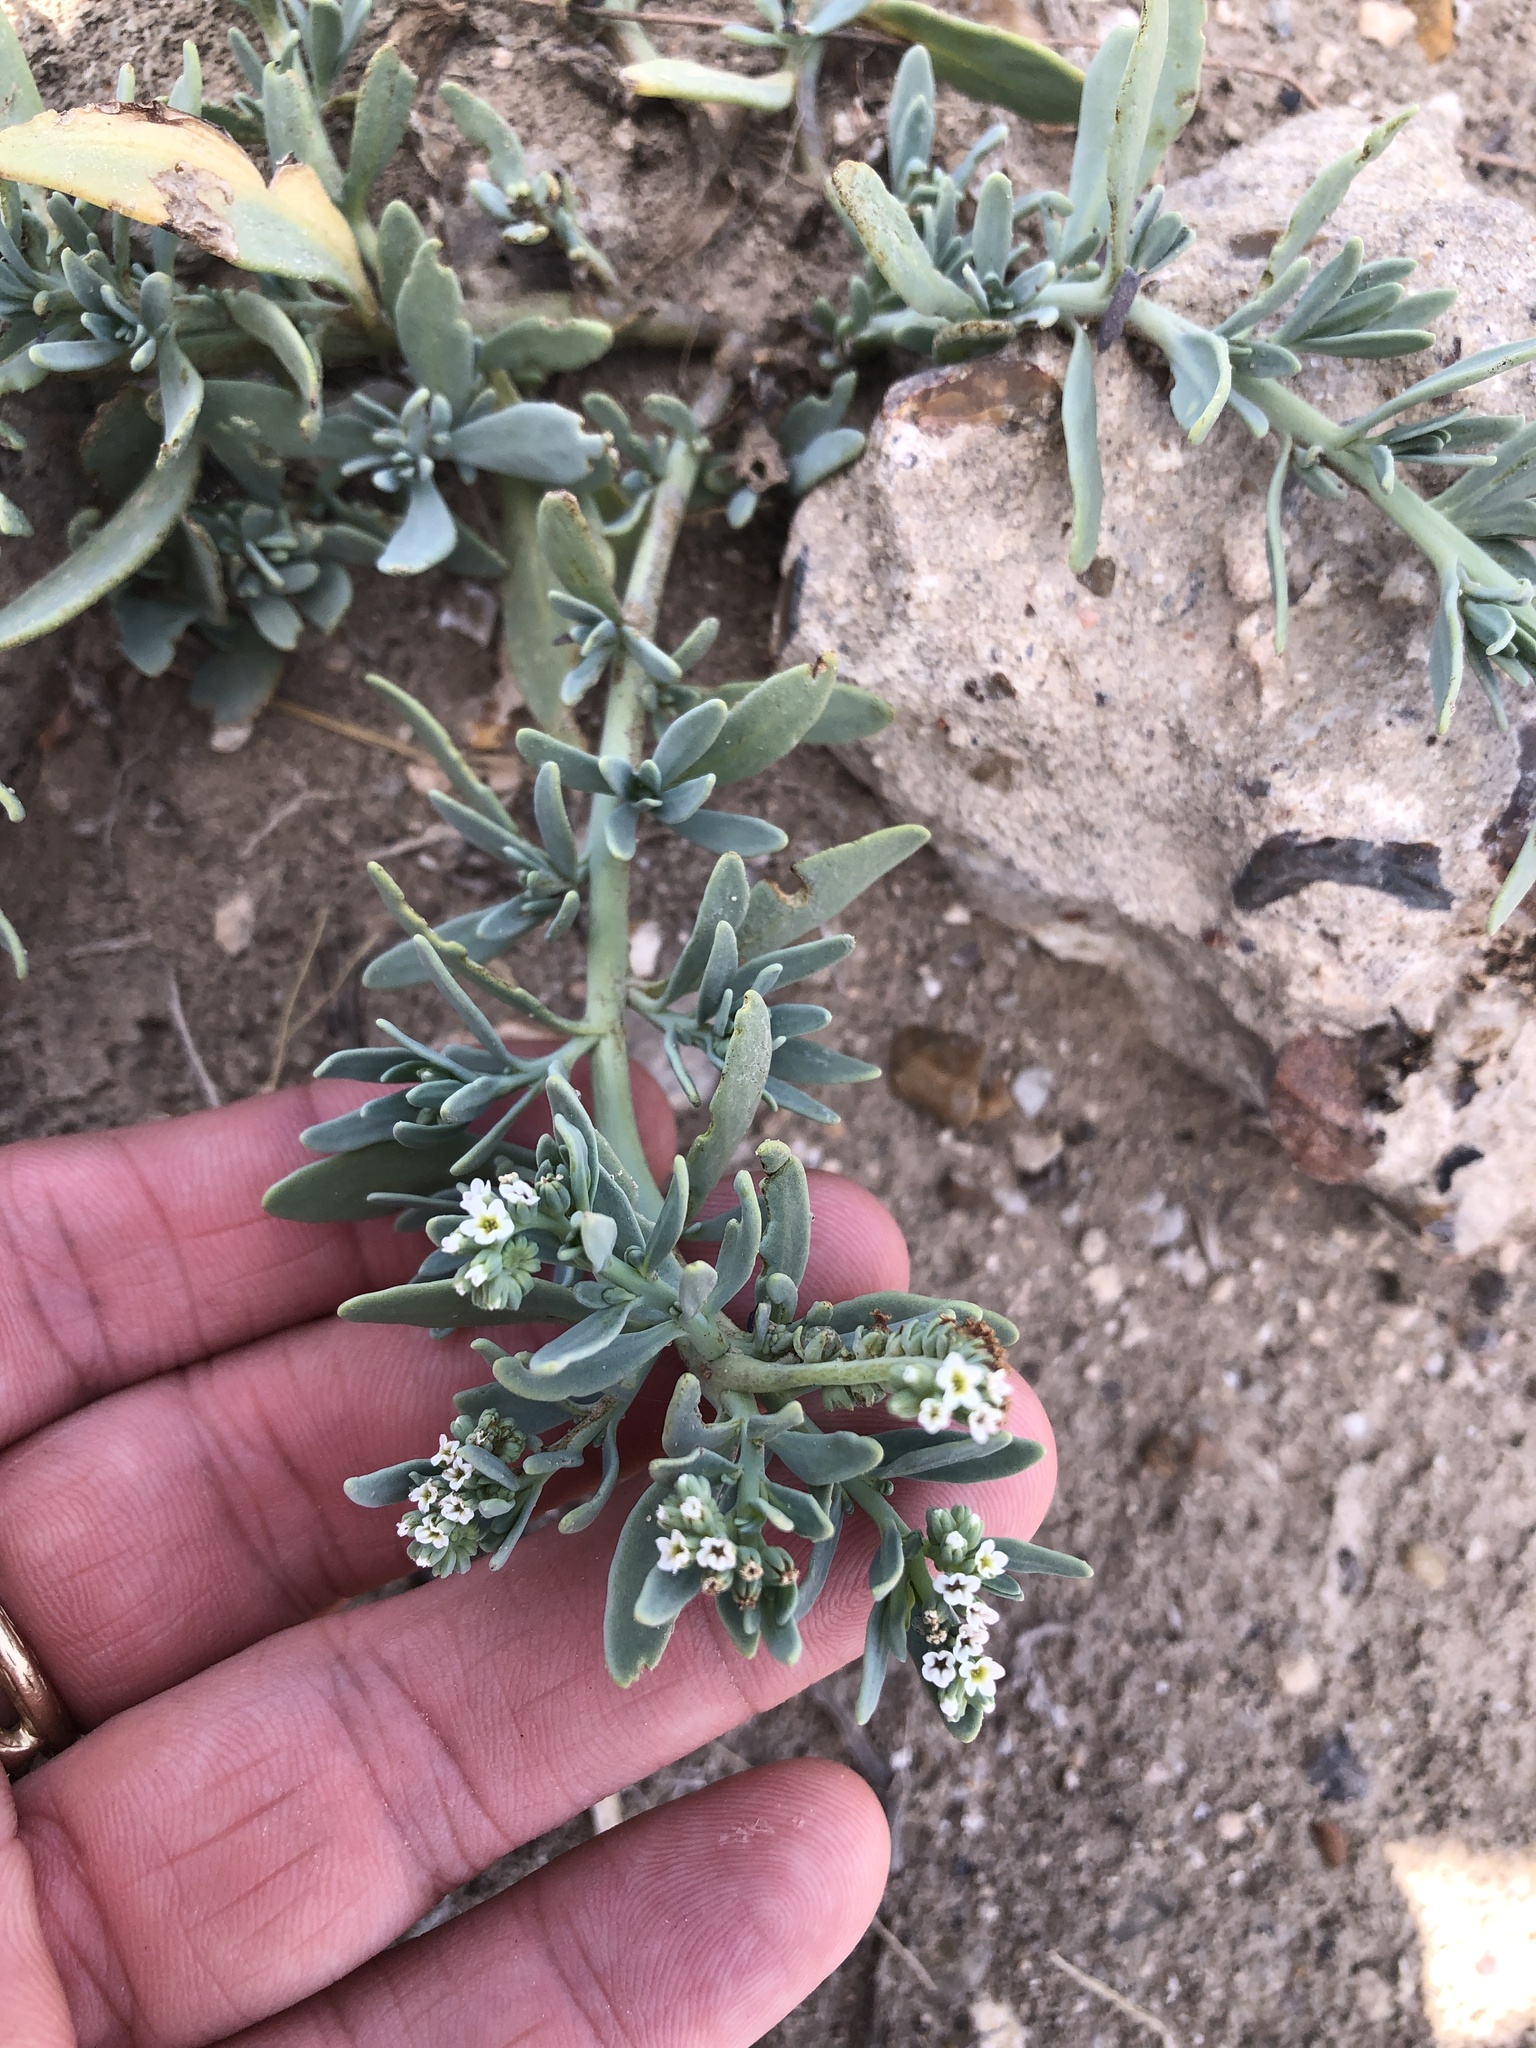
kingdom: Plantae
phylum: Tracheophyta
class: Magnoliopsida
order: Boraginales
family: Heliotropiaceae
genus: Heliotropium
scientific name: Heliotropium curassavicum
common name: Seaside heliotrope
